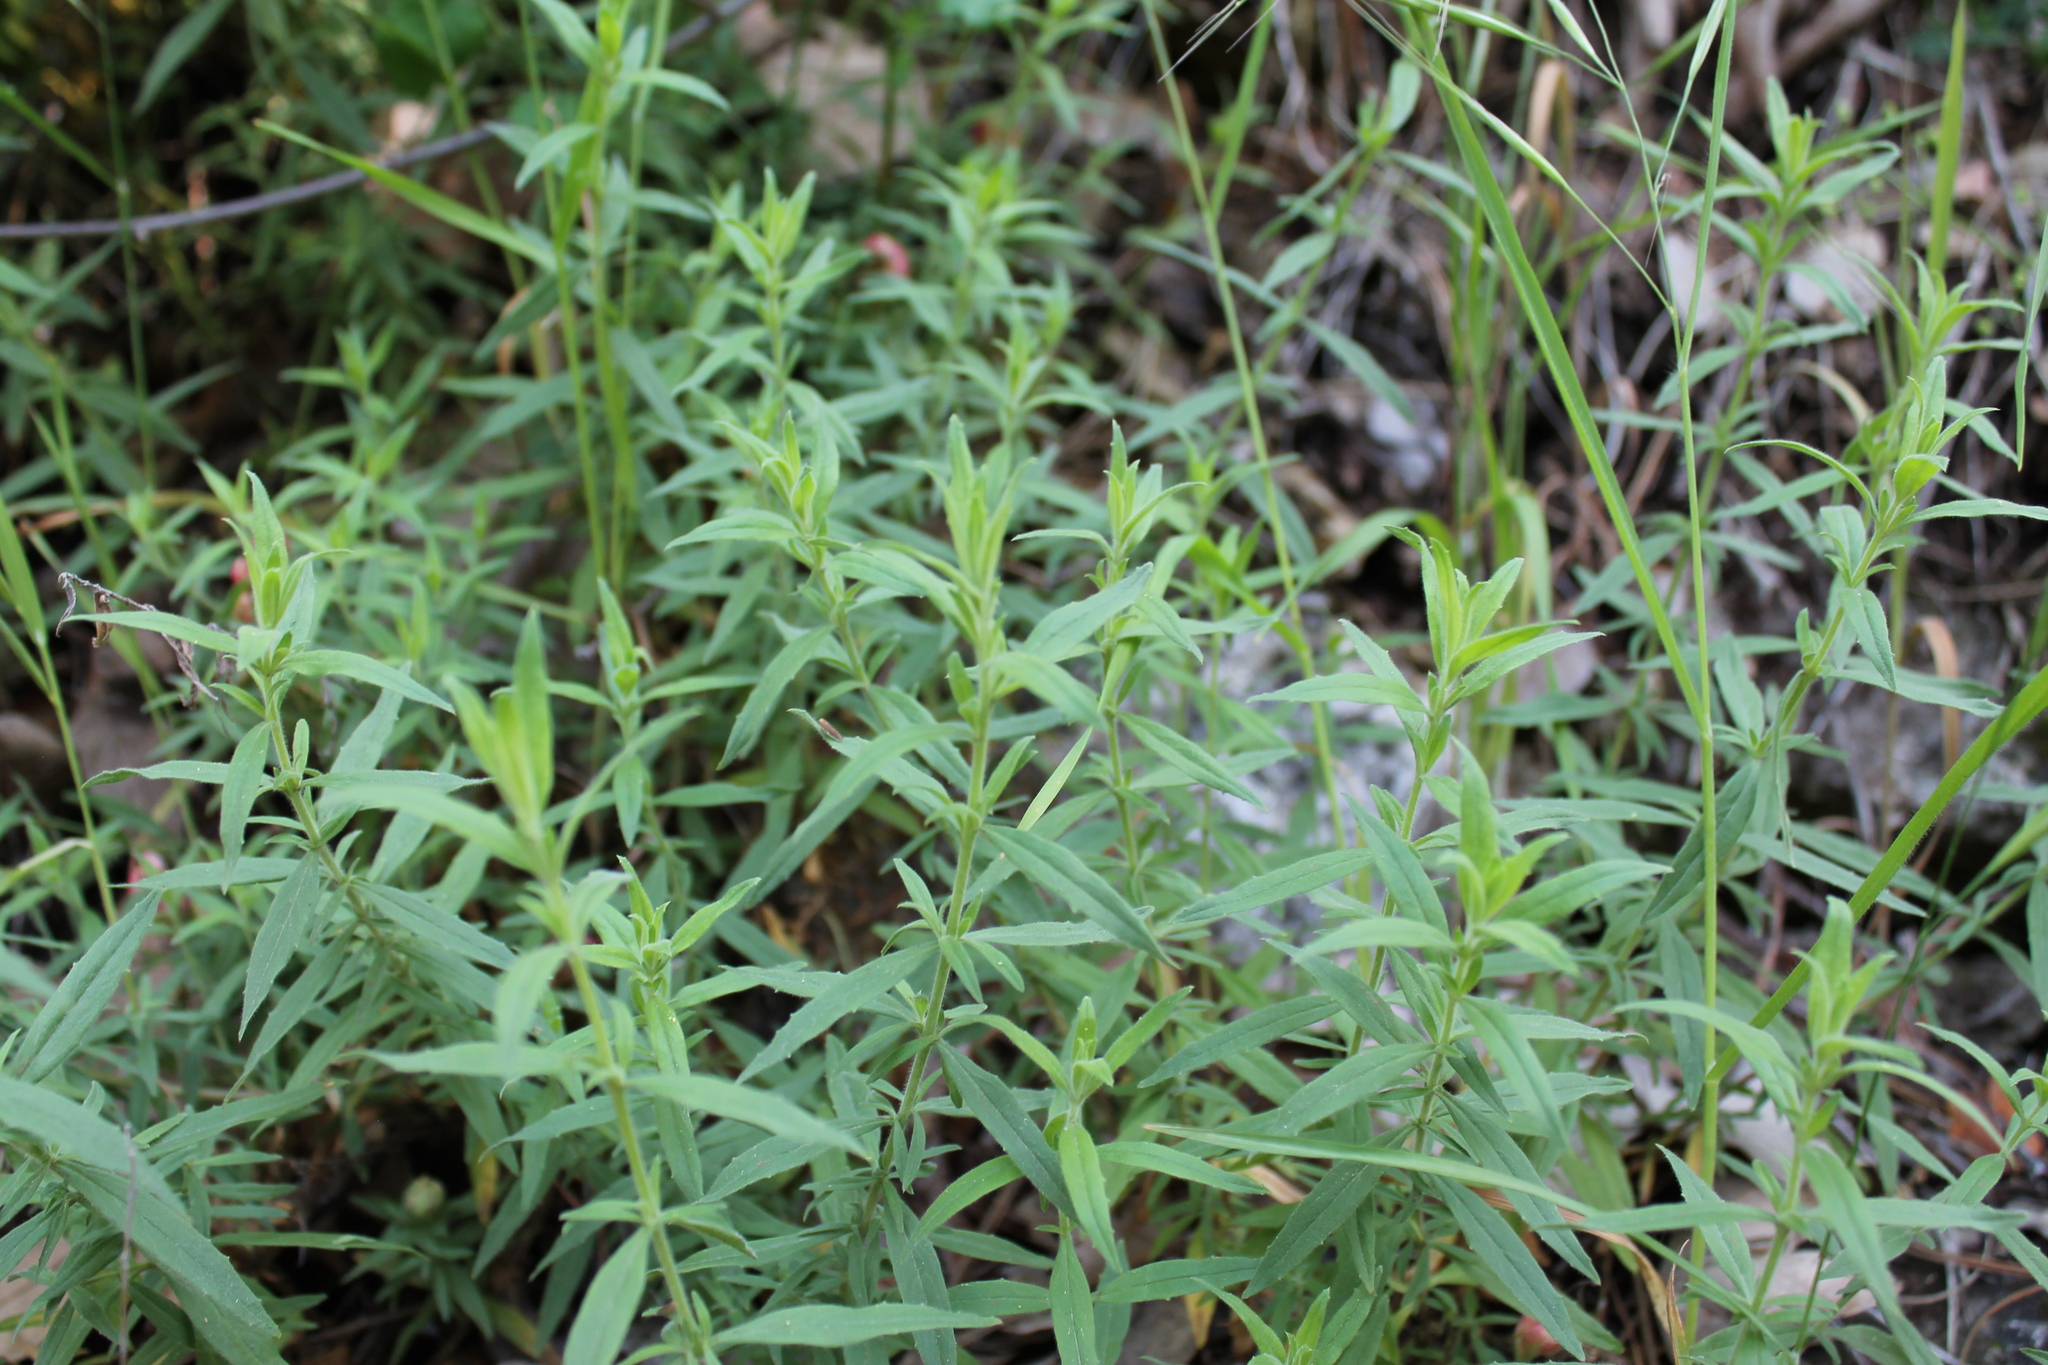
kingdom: Plantae
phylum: Tracheophyta
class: Magnoliopsida
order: Myrtales
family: Onagraceae
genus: Epilobium
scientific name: Epilobium canum
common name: California-fuchsia
